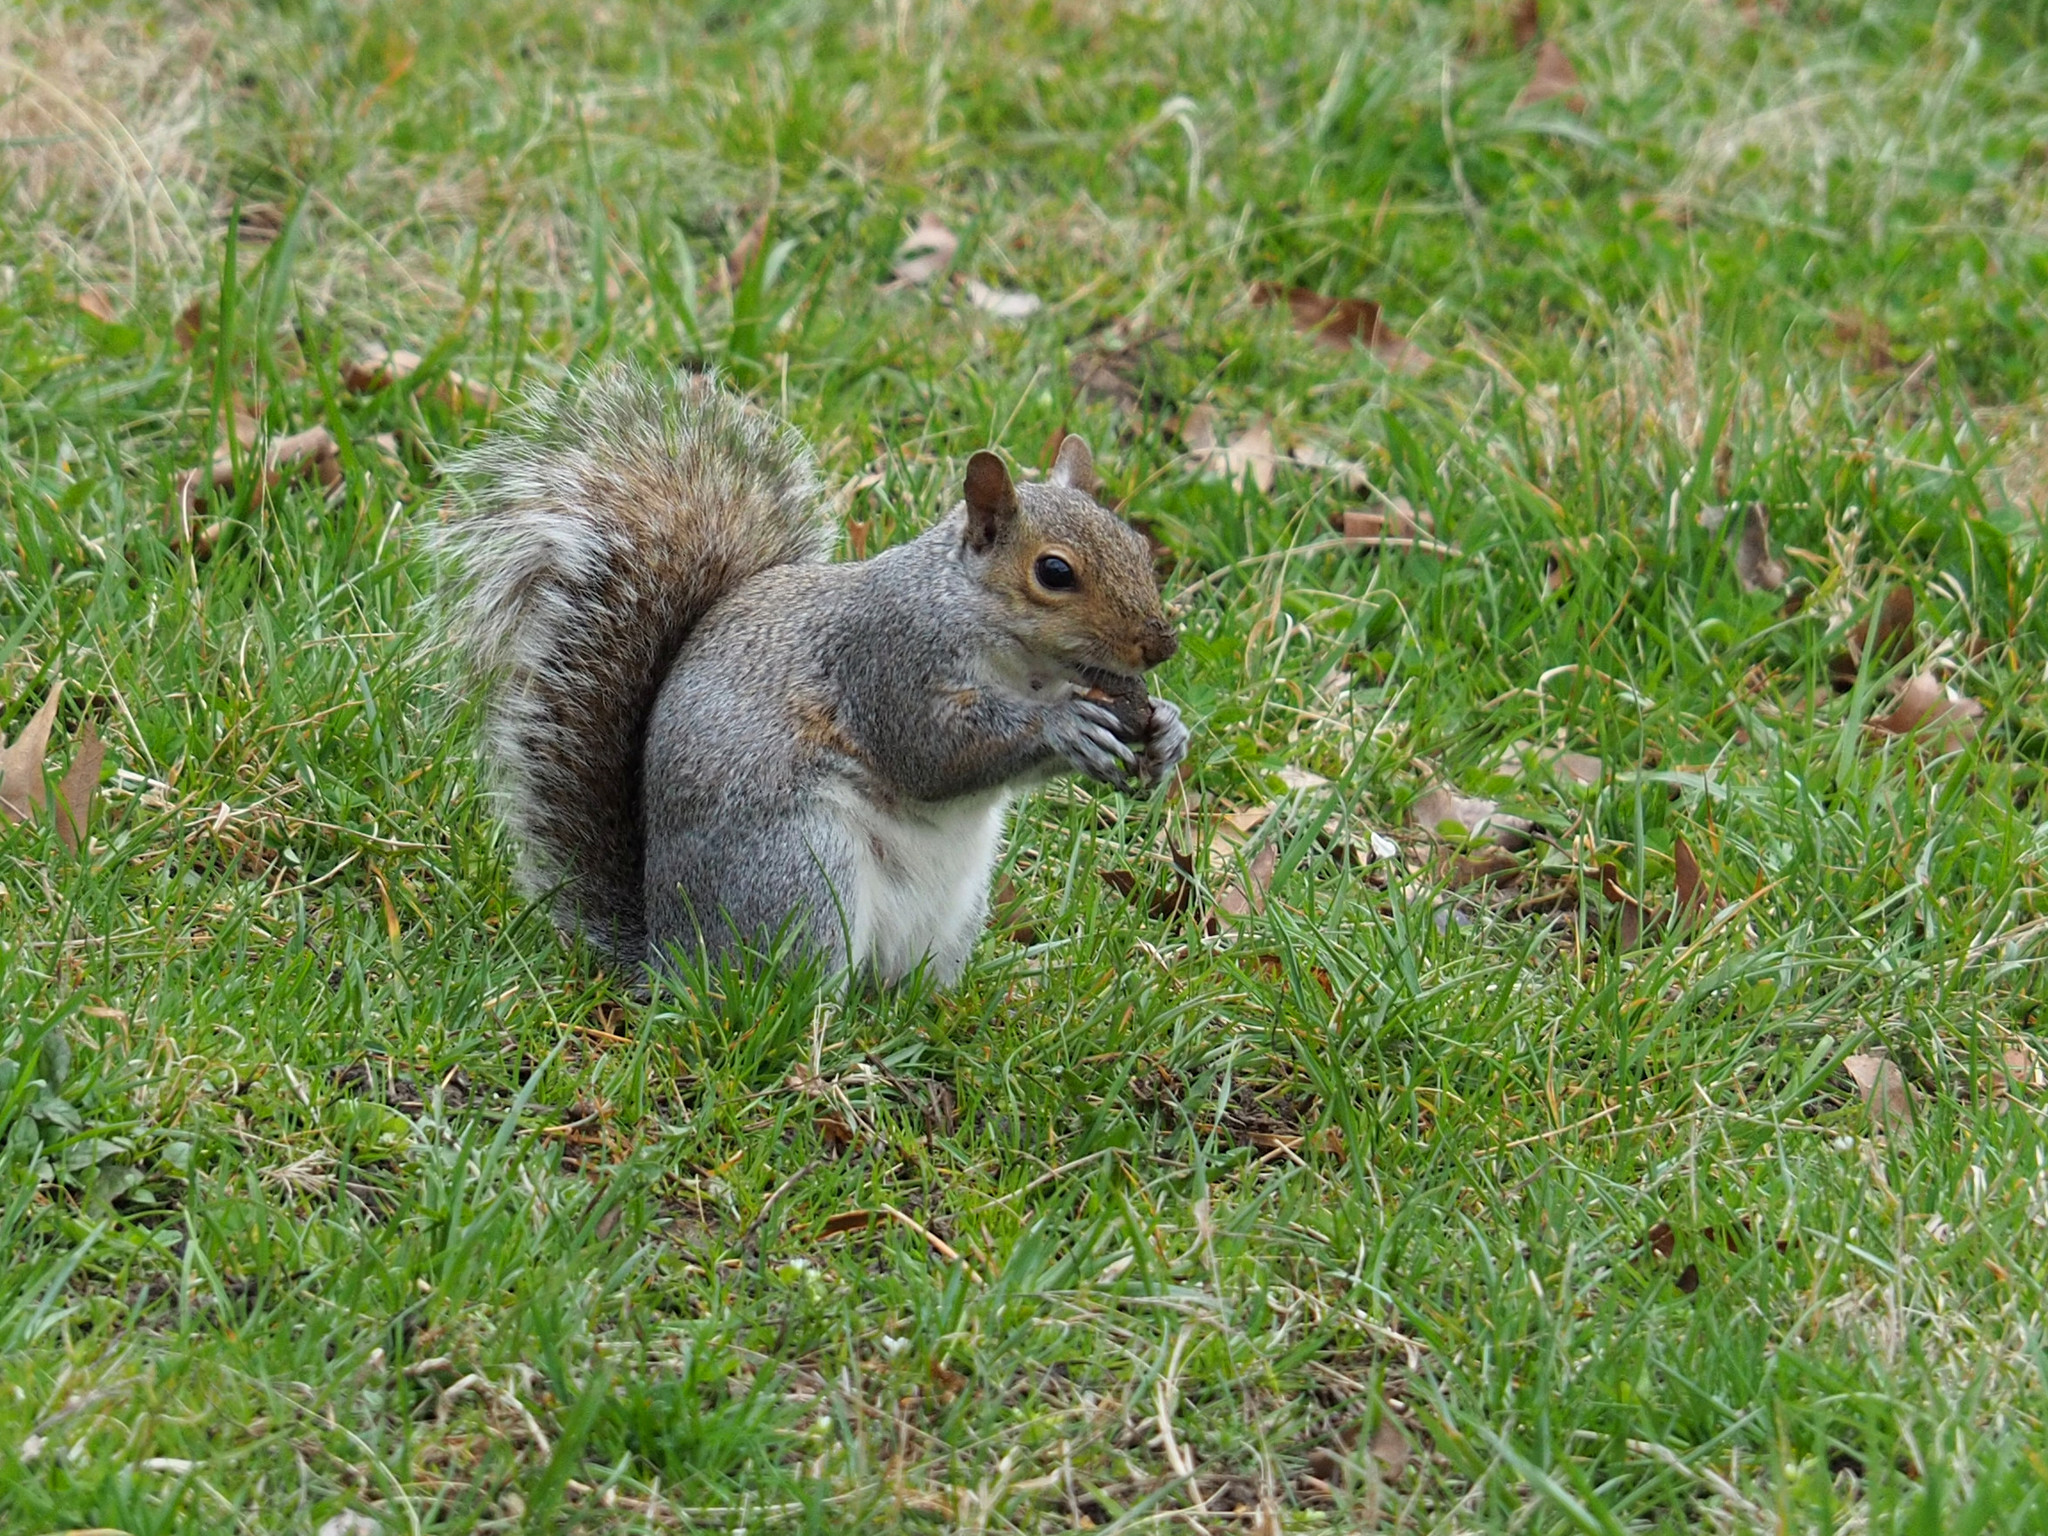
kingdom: Animalia
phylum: Chordata
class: Mammalia
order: Rodentia
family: Sciuridae
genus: Sciurus
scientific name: Sciurus carolinensis
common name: Eastern gray squirrel
